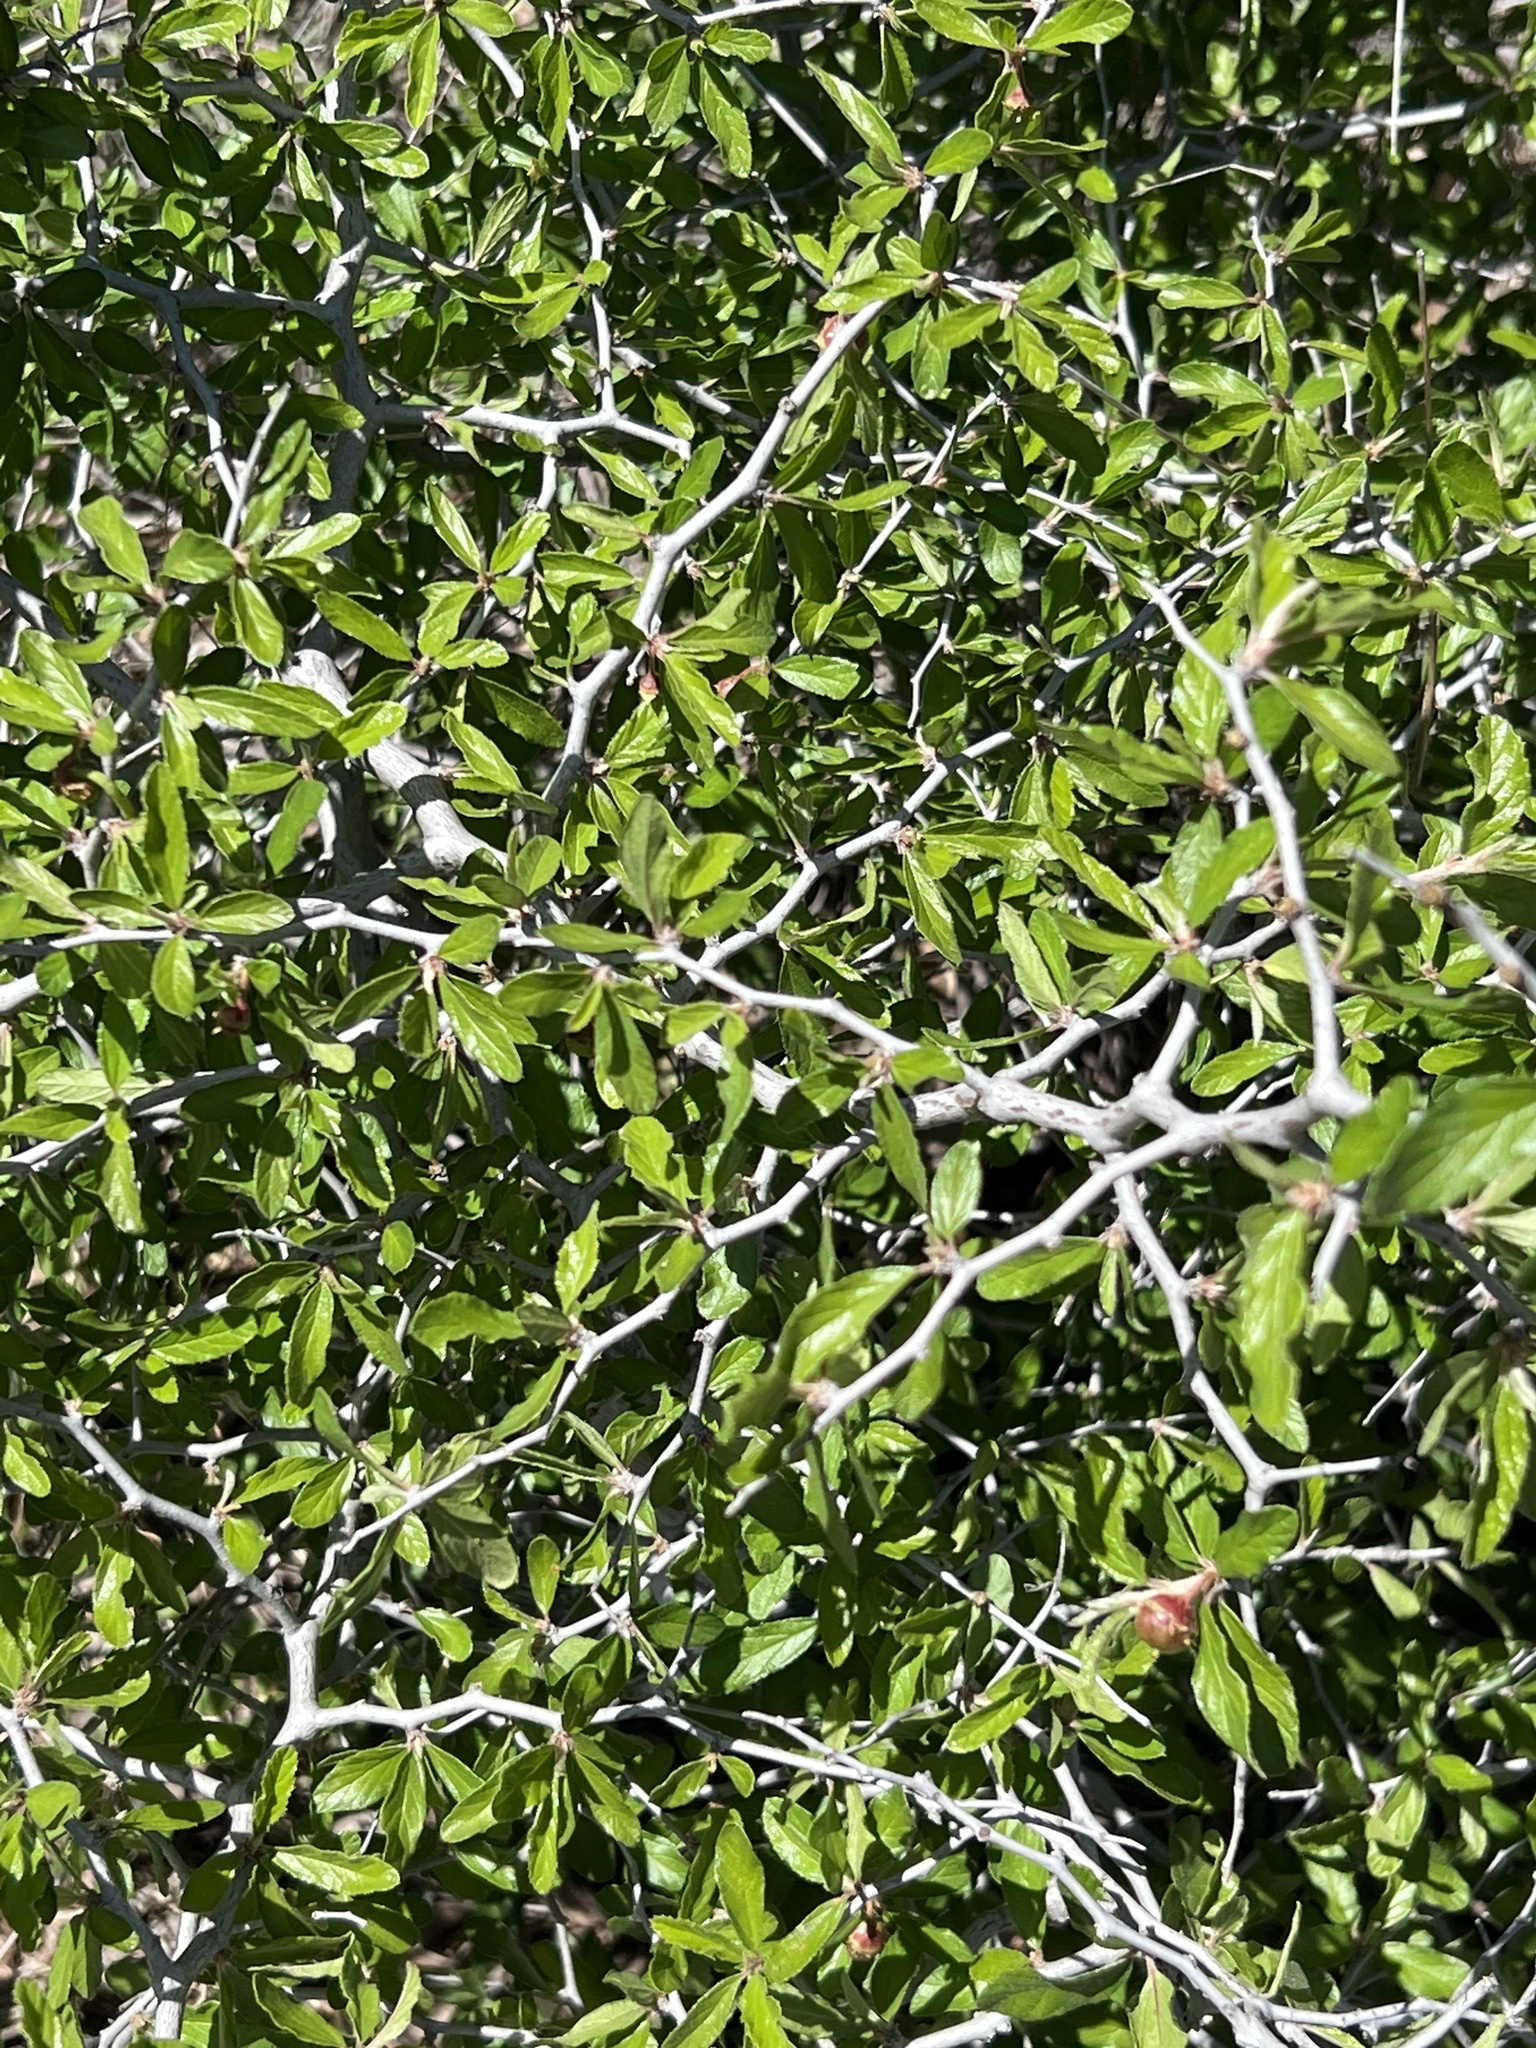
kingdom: Plantae
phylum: Tracheophyta
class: Magnoliopsida
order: Rosales
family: Rhamnaceae
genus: Colubrina
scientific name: Colubrina texensis
